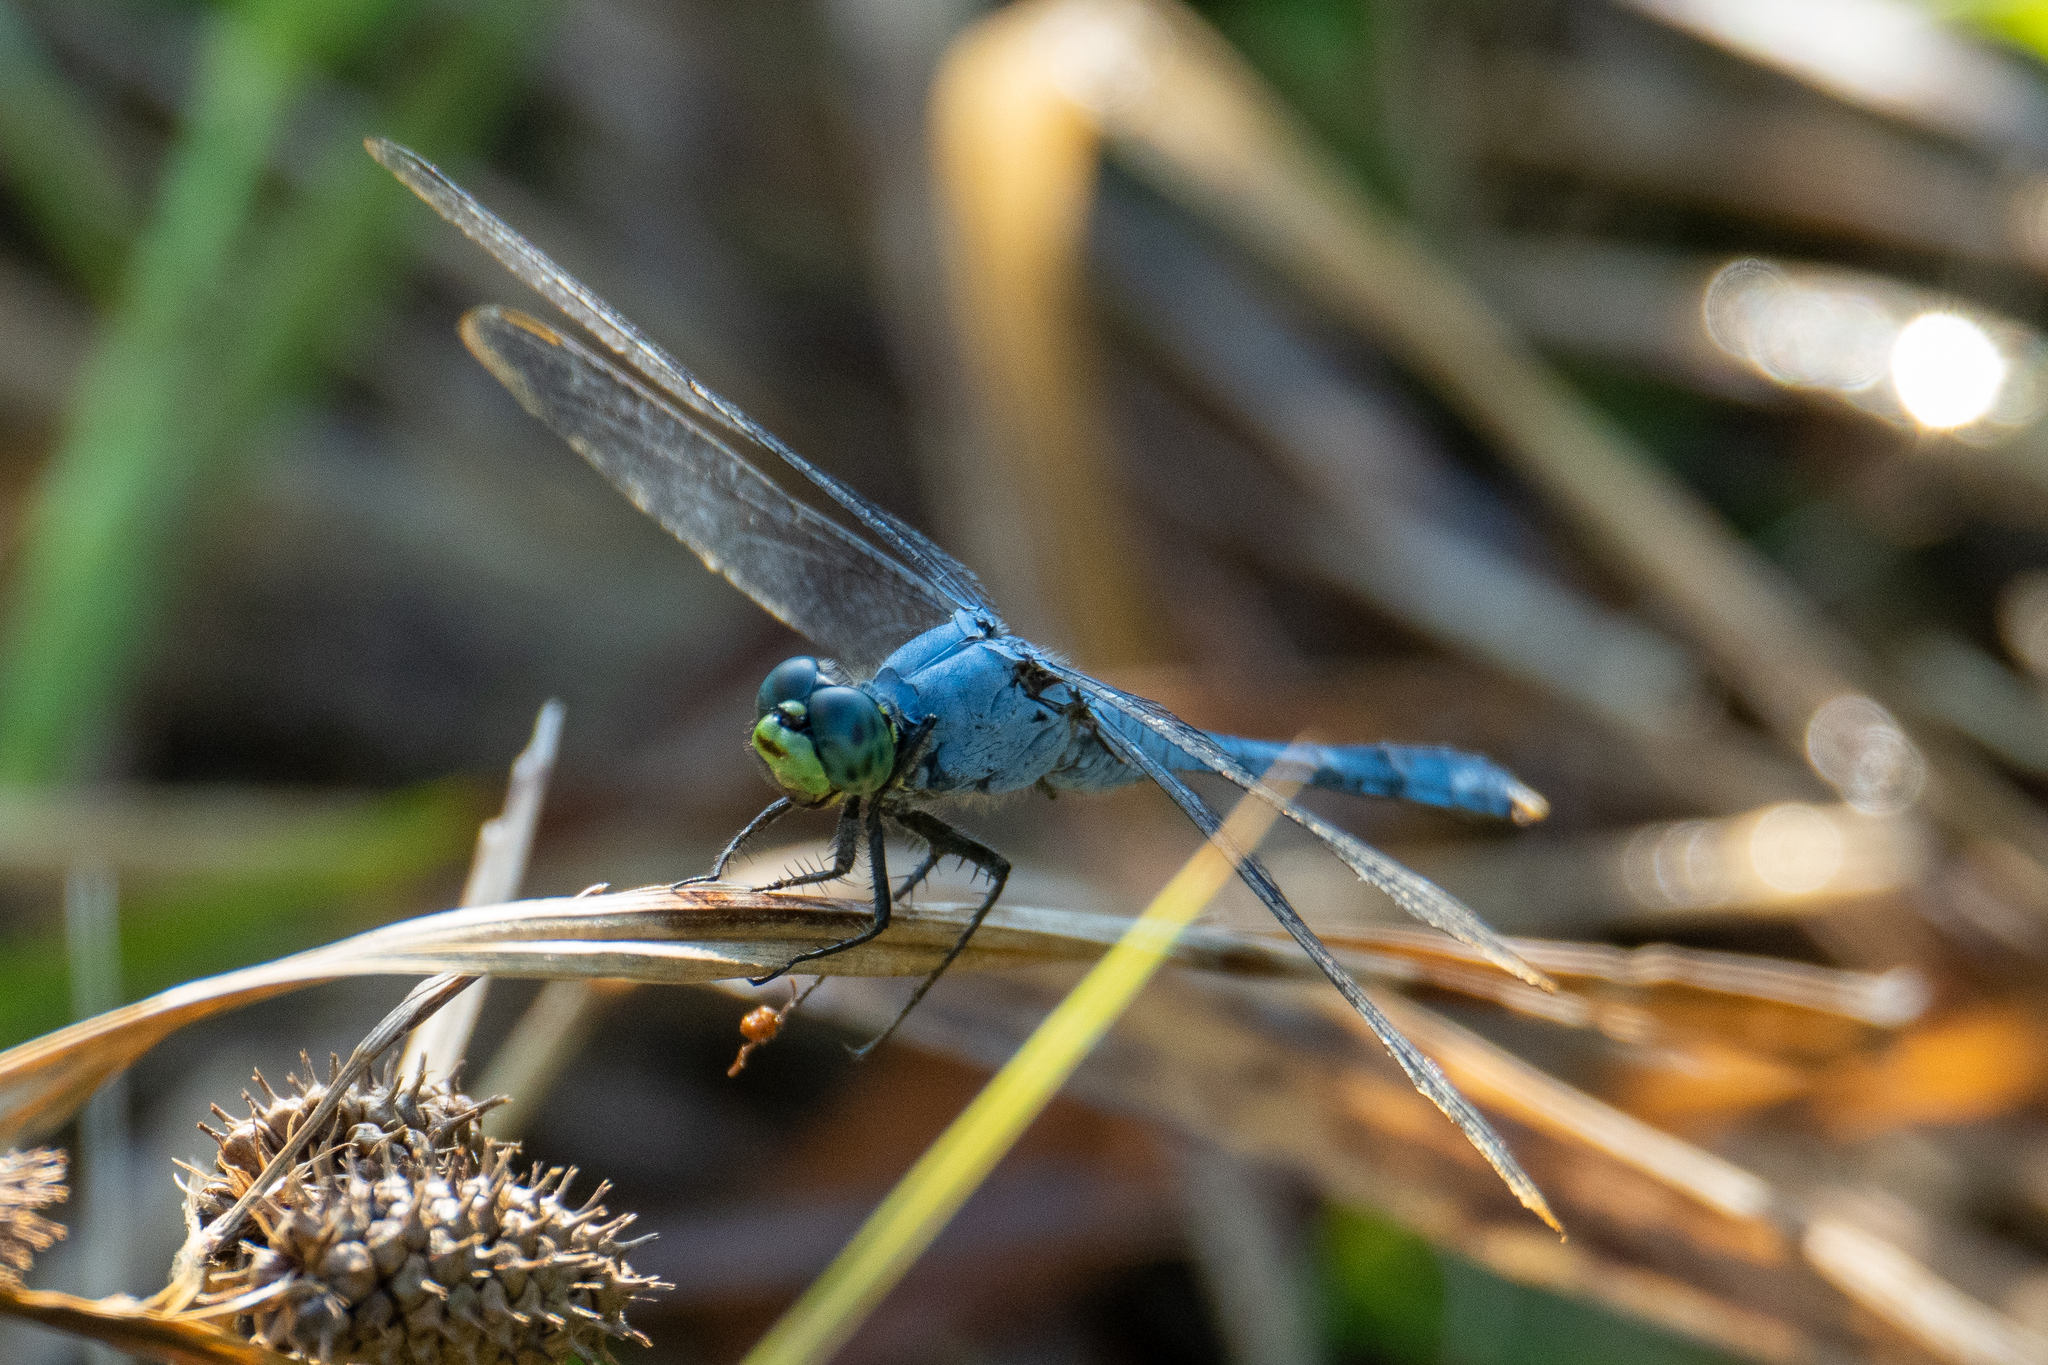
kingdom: Animalia
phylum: Arthropoda
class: Insecta
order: Odonata
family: Libellulidae
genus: Erythemis
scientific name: Erythemis simplicicollis
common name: Eastern pondhawk
